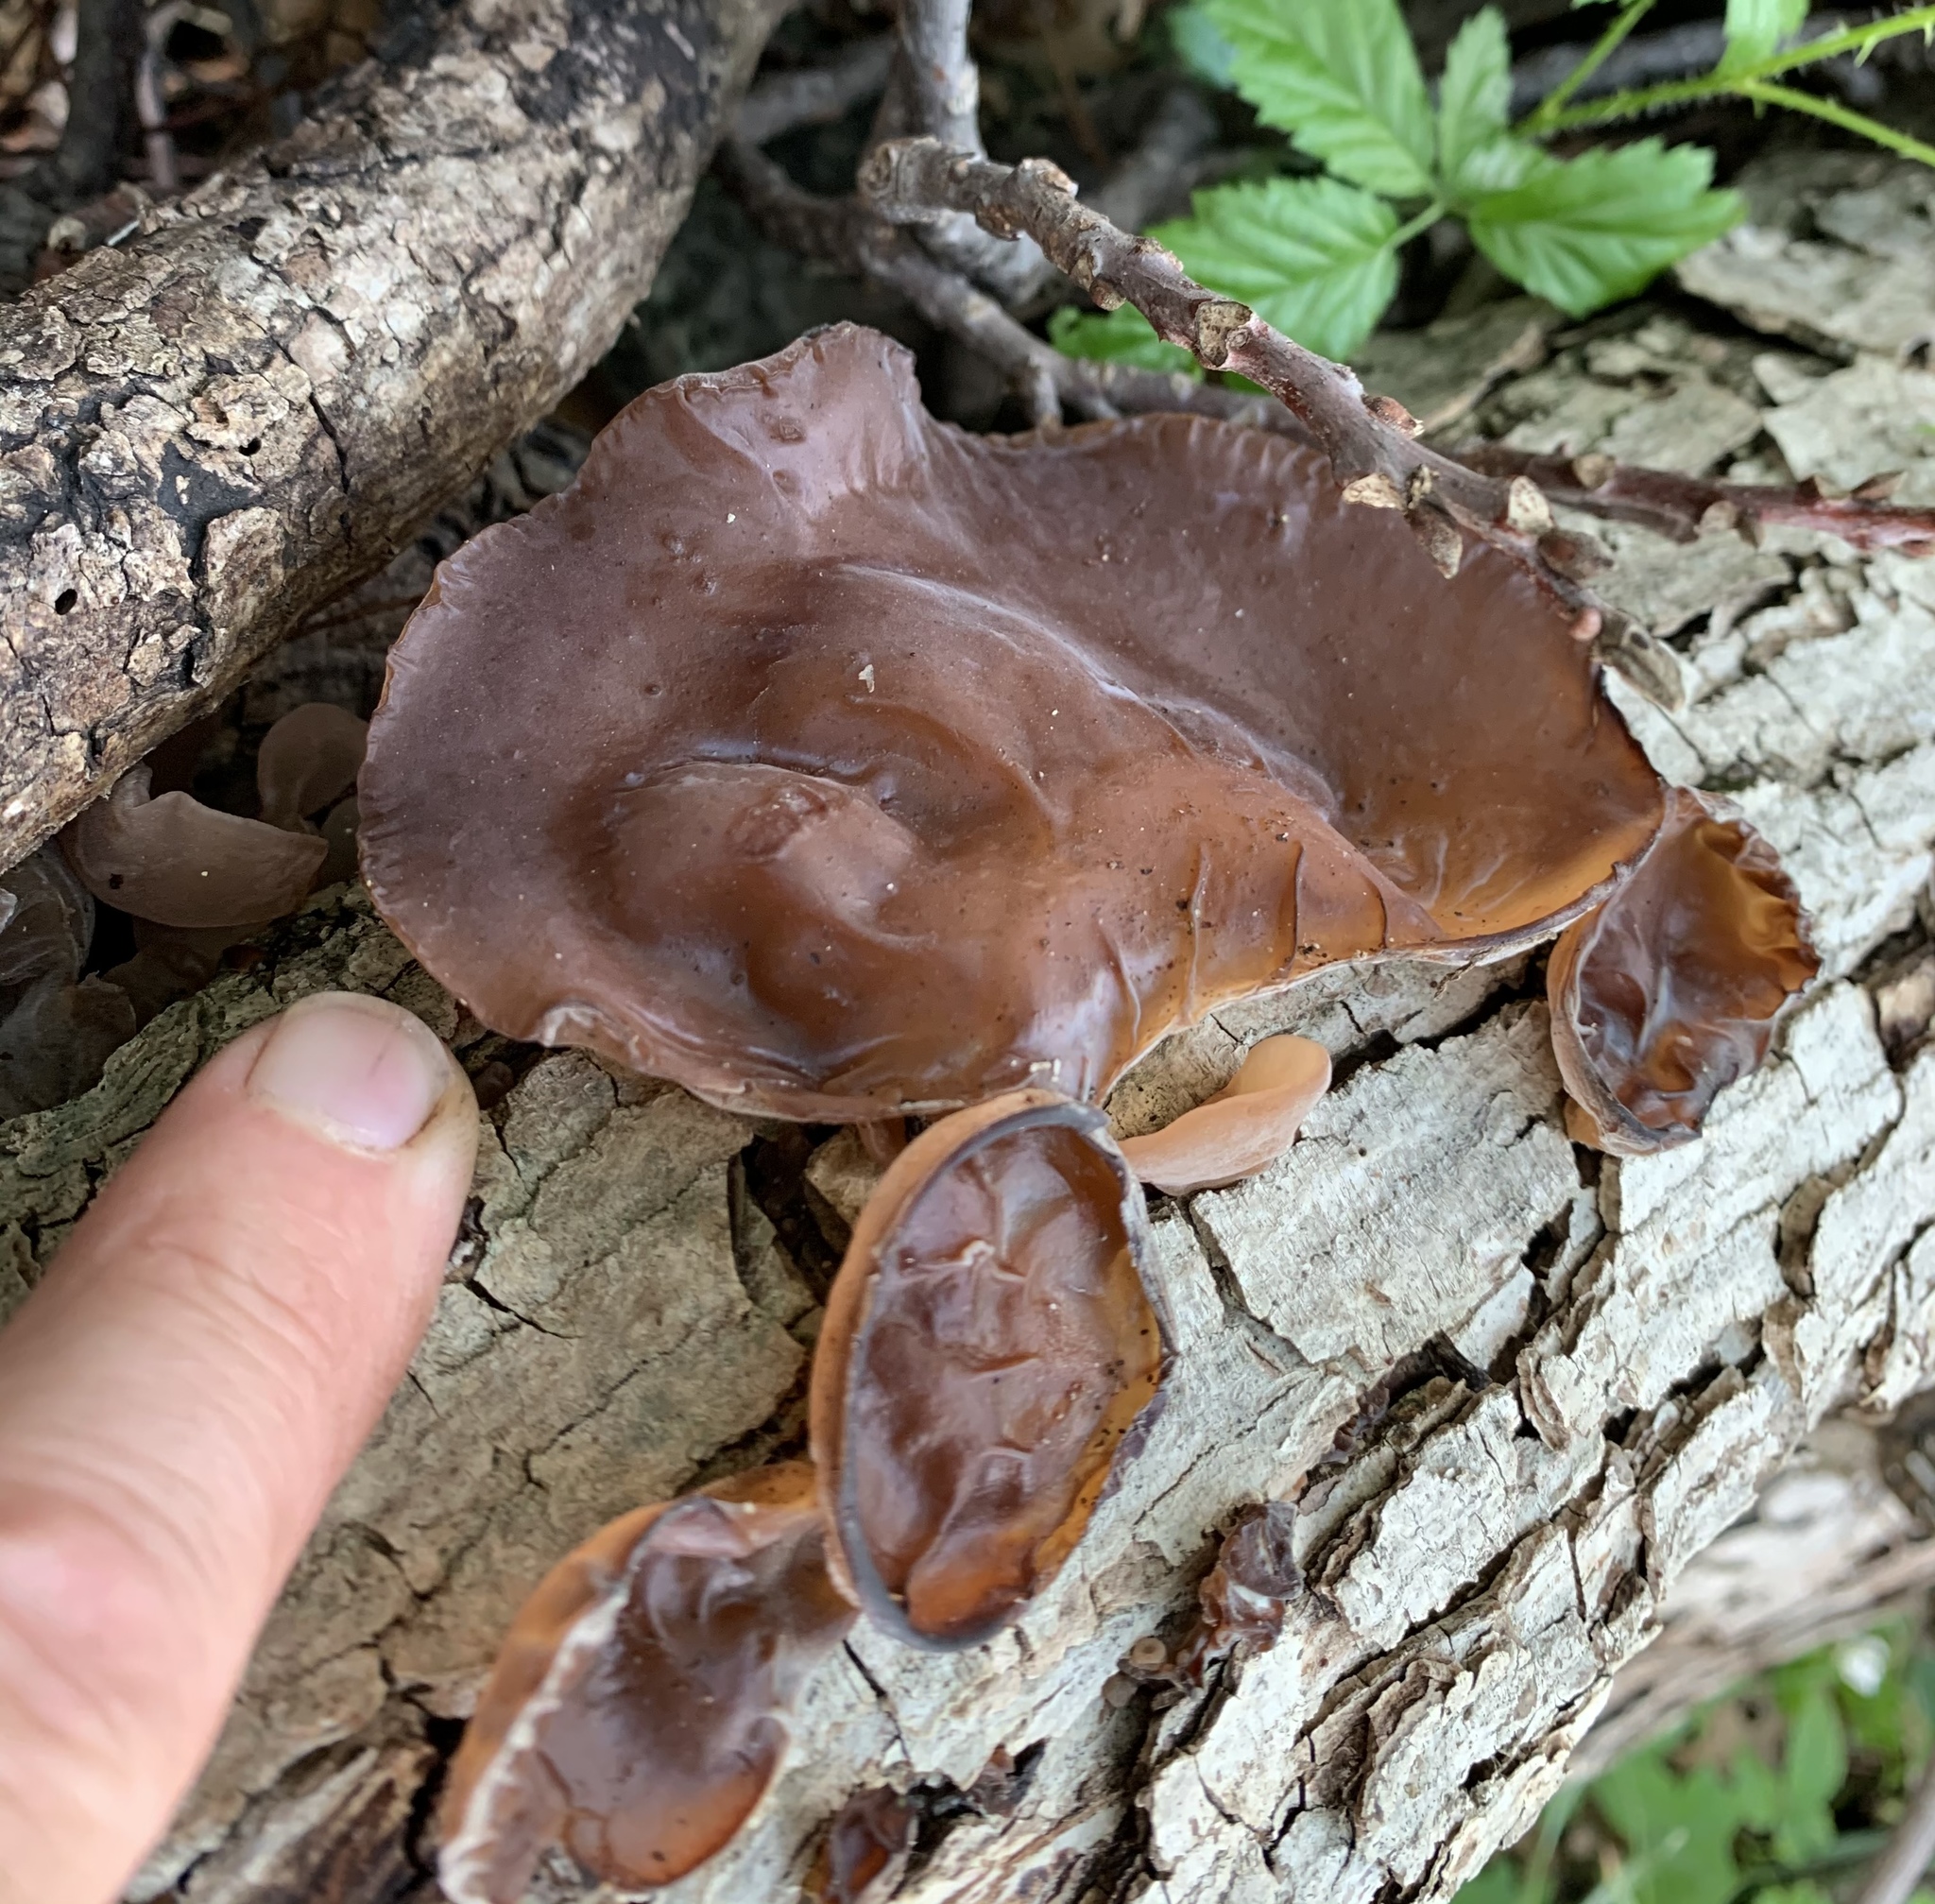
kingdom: Fungi
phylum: Basidiomycota
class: Agaricomycetes
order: Auriculariales
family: Auriculariaceae
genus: Auricularia
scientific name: Auricularia
